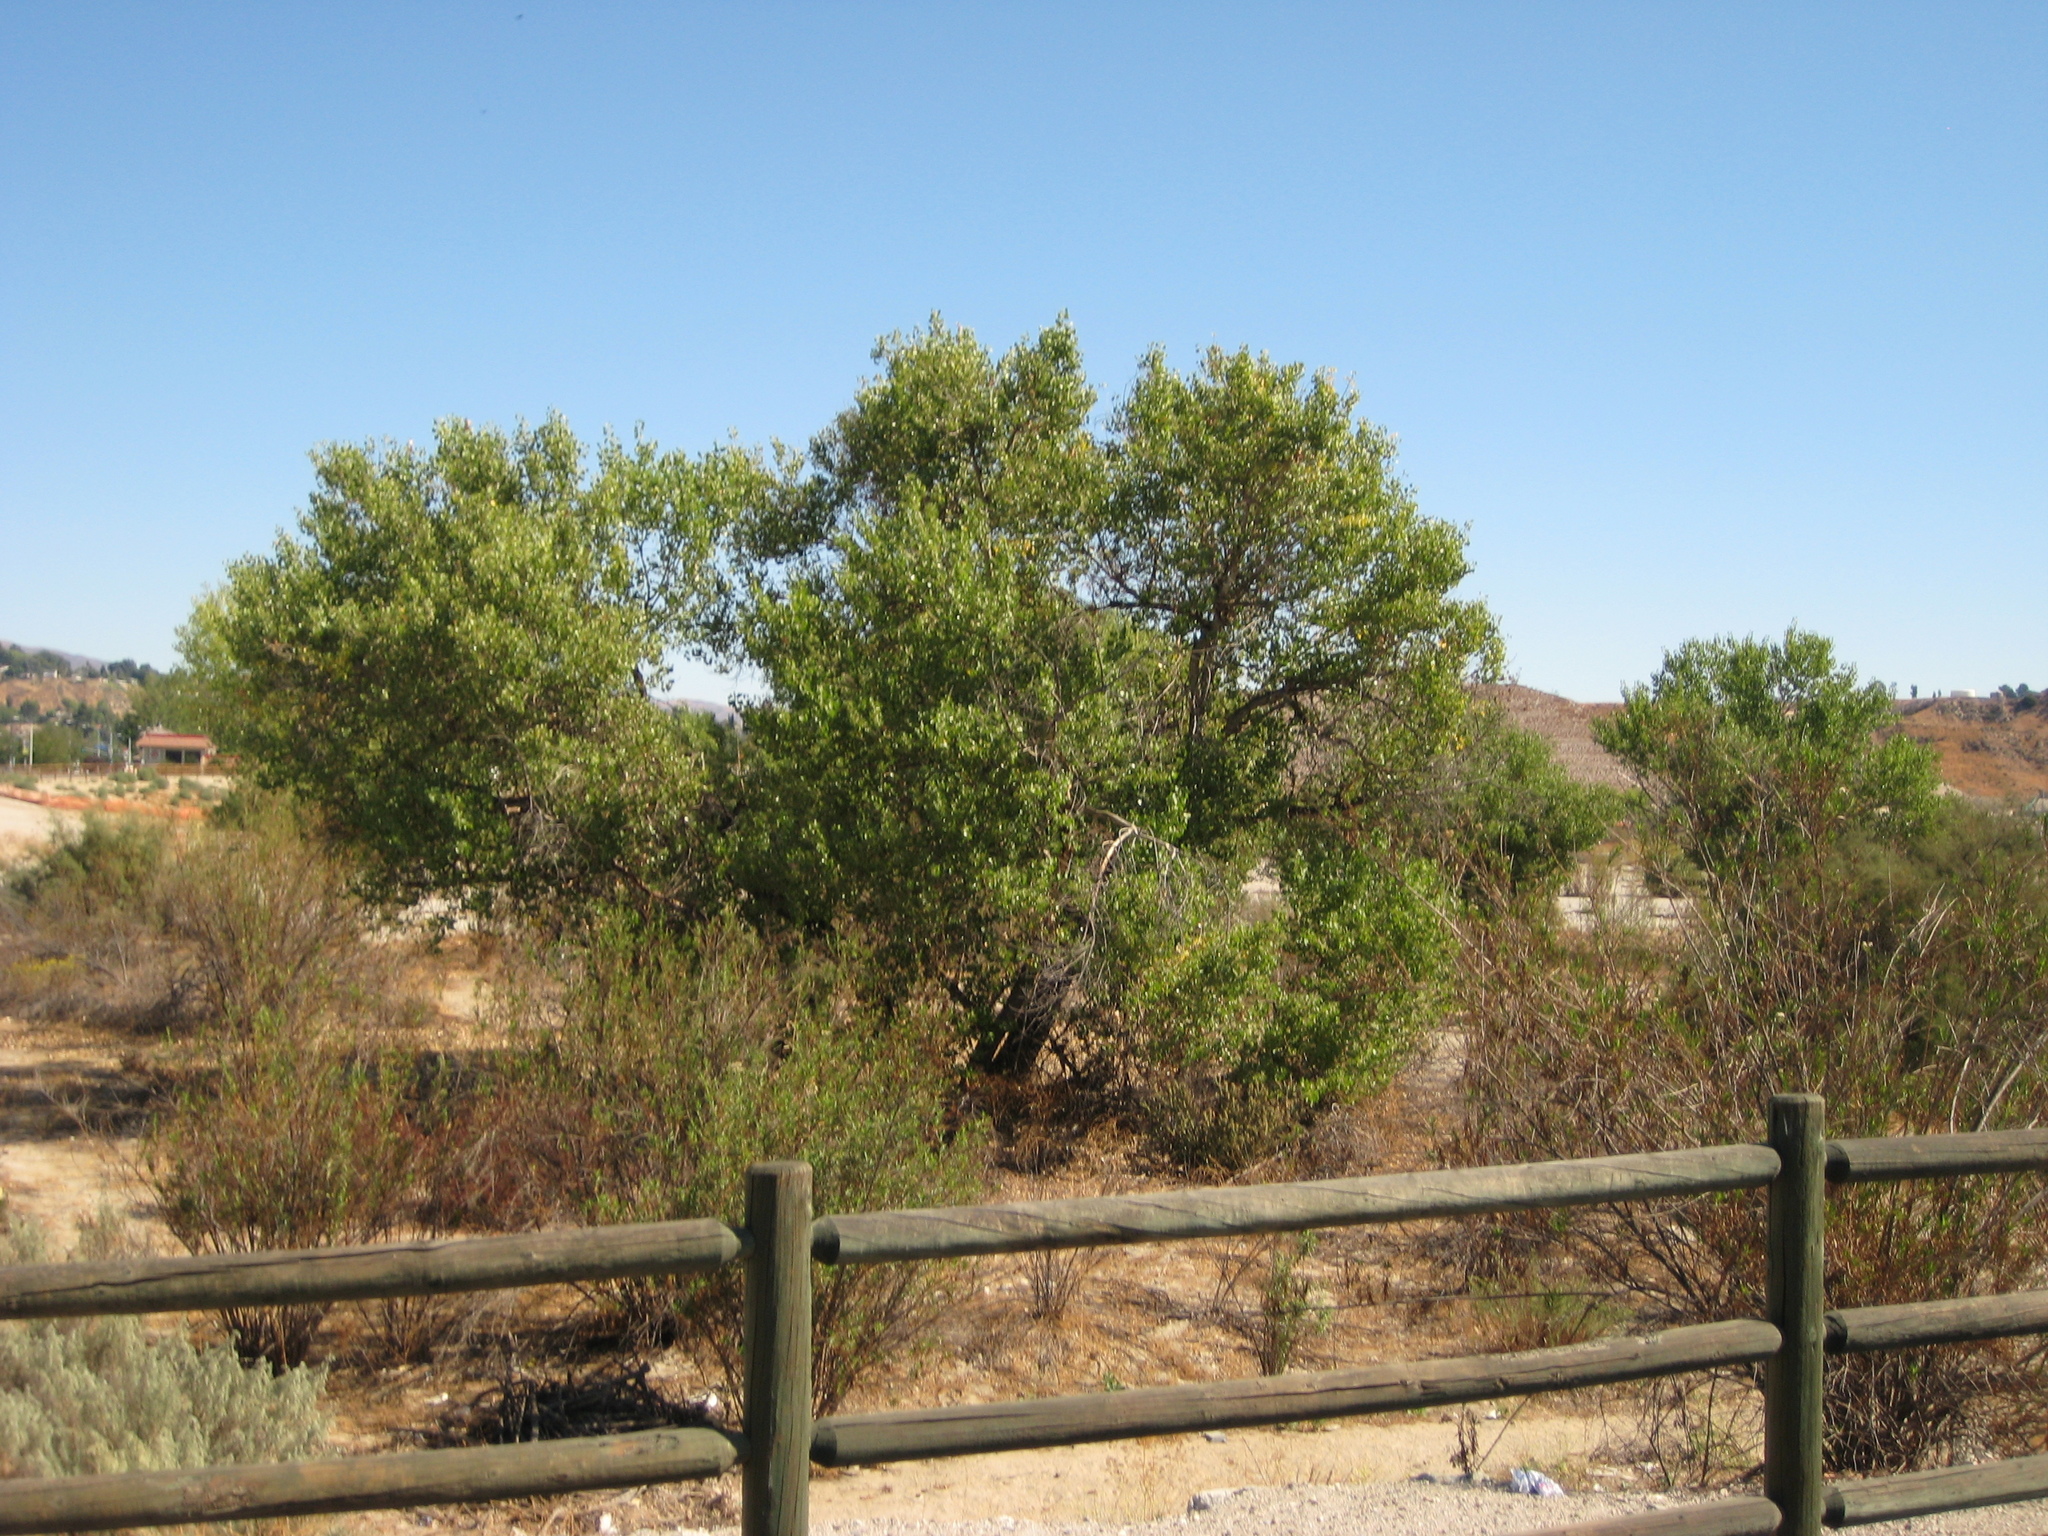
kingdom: Plantae
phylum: Tracheophyta
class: Magnoliopsida
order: Asterales
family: Asteraceae
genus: Baccharis
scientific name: Baccharis salicifolia
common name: Sticky baccharis
